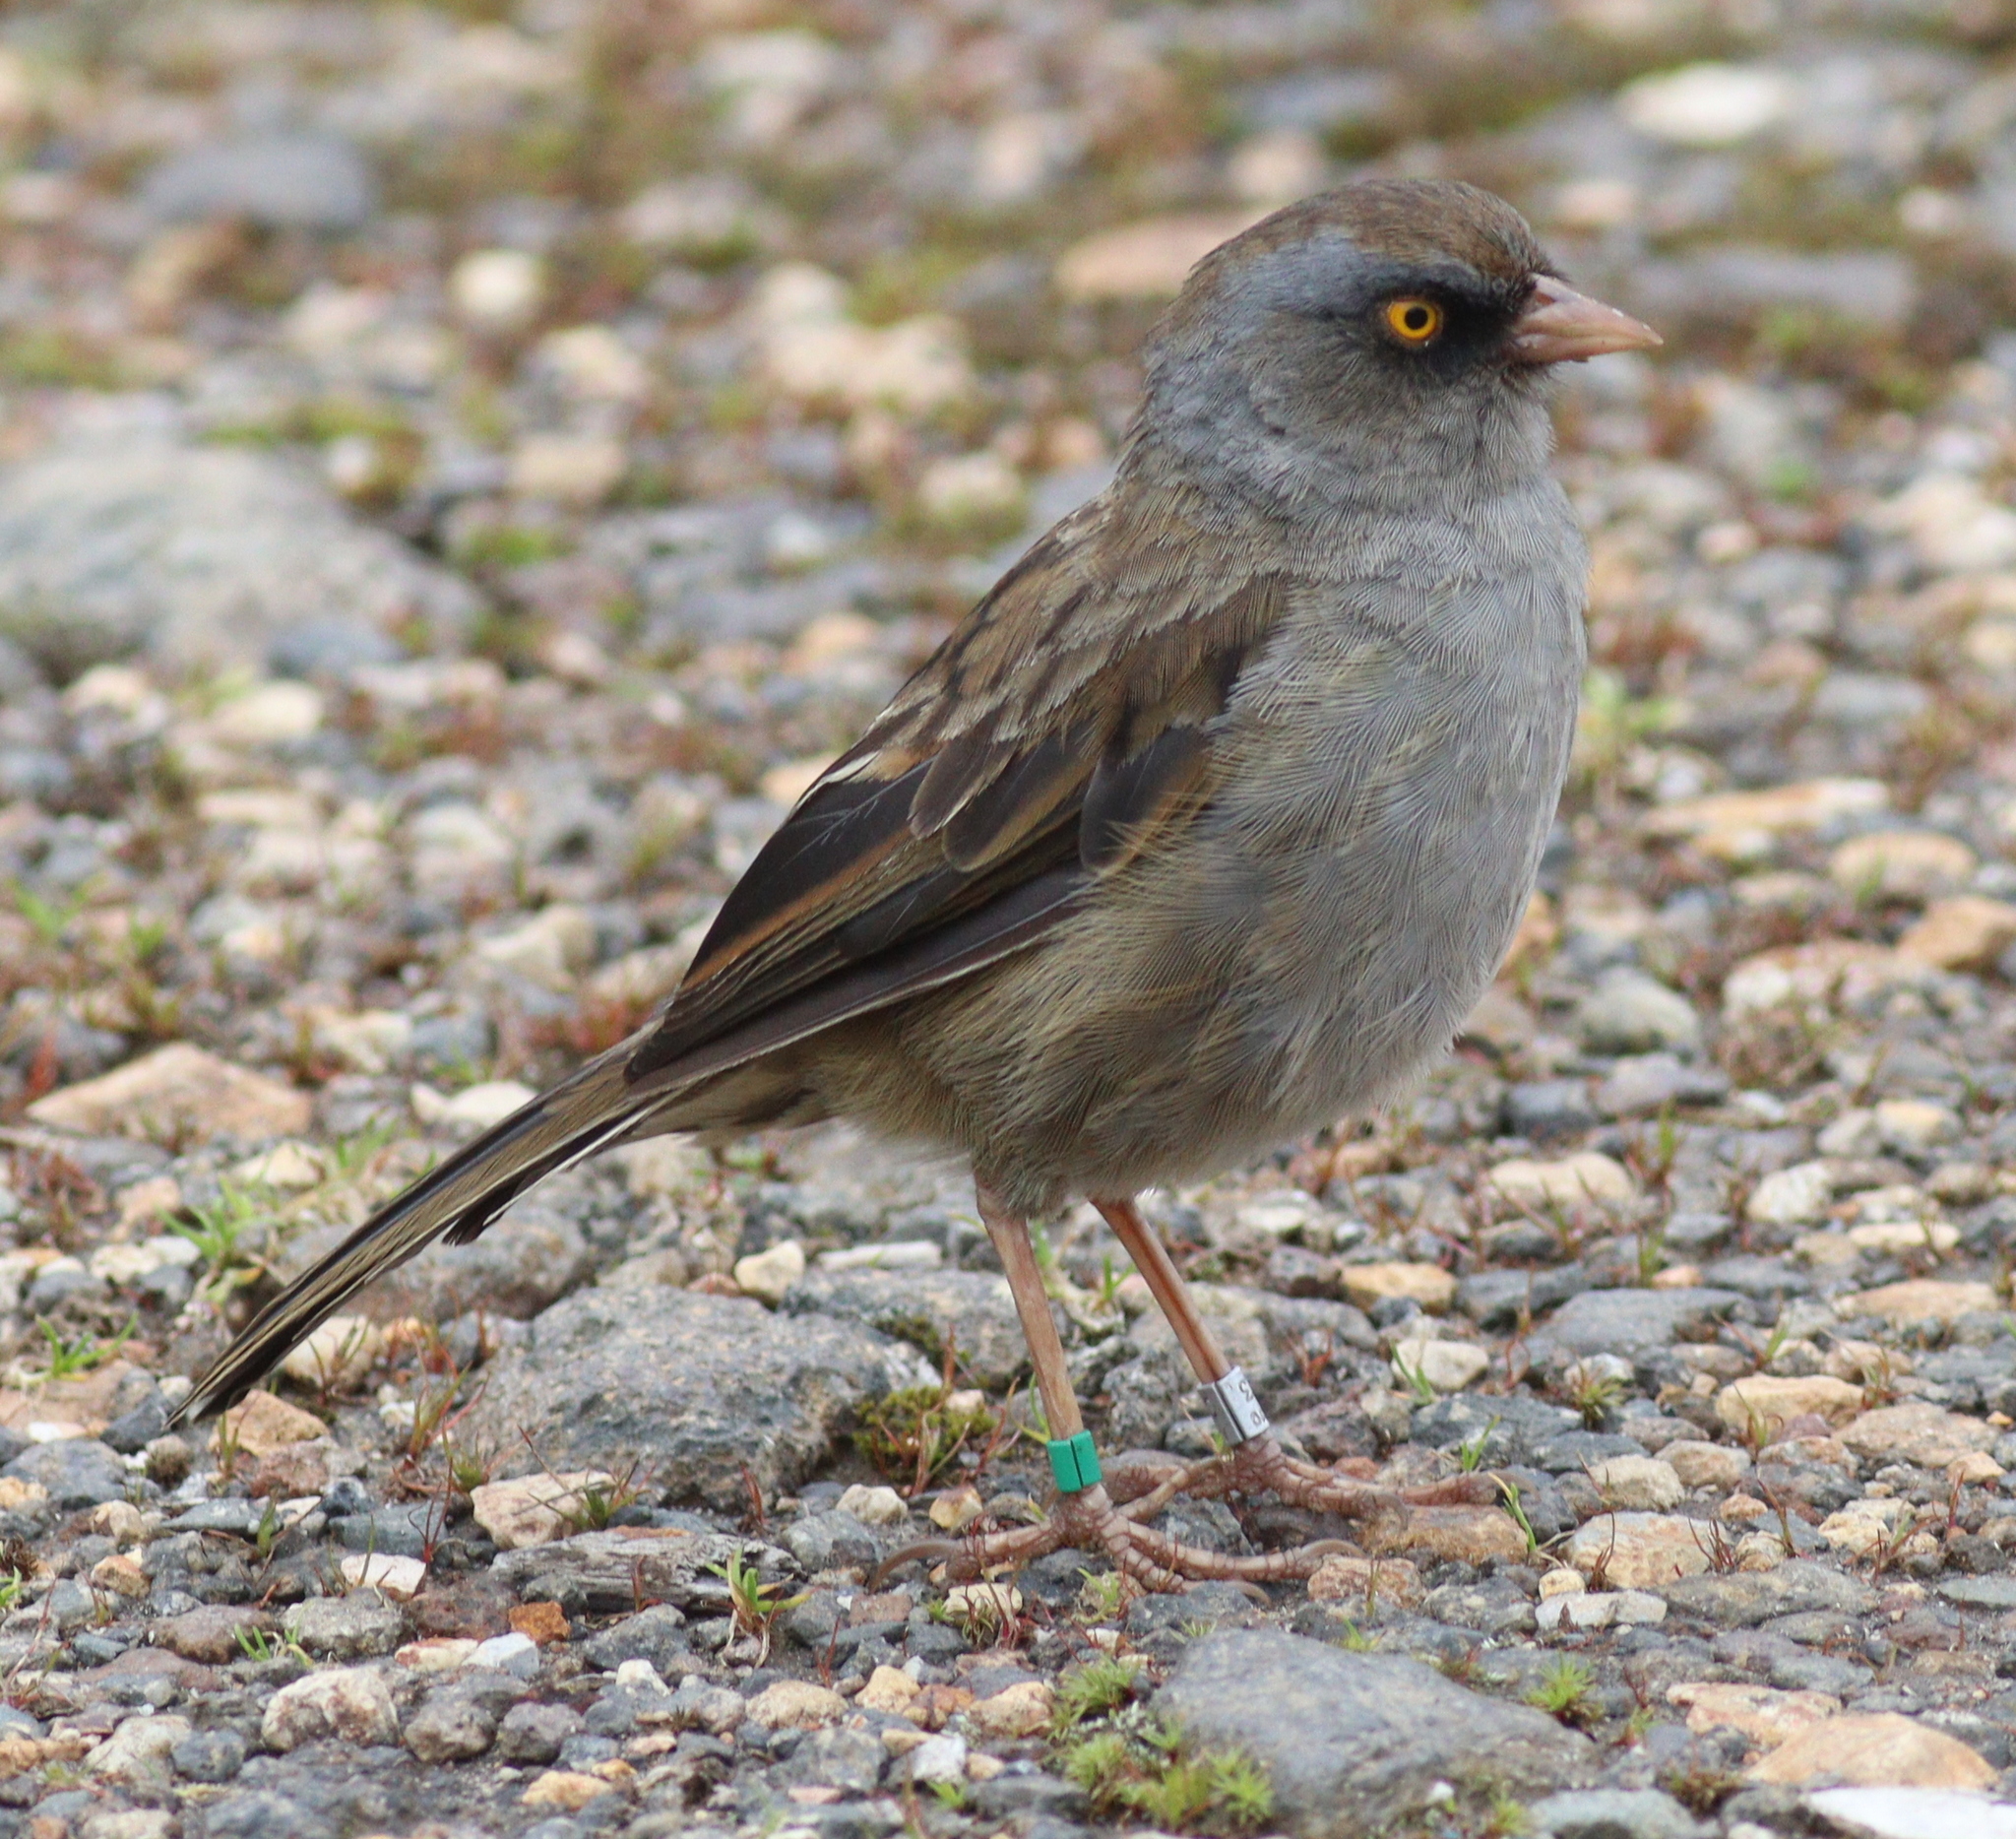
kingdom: Animalia
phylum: Chordata
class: Aves
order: Passeriformes
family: Passerellidae
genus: Junco
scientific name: Junco vulcani
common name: Volcano junco
